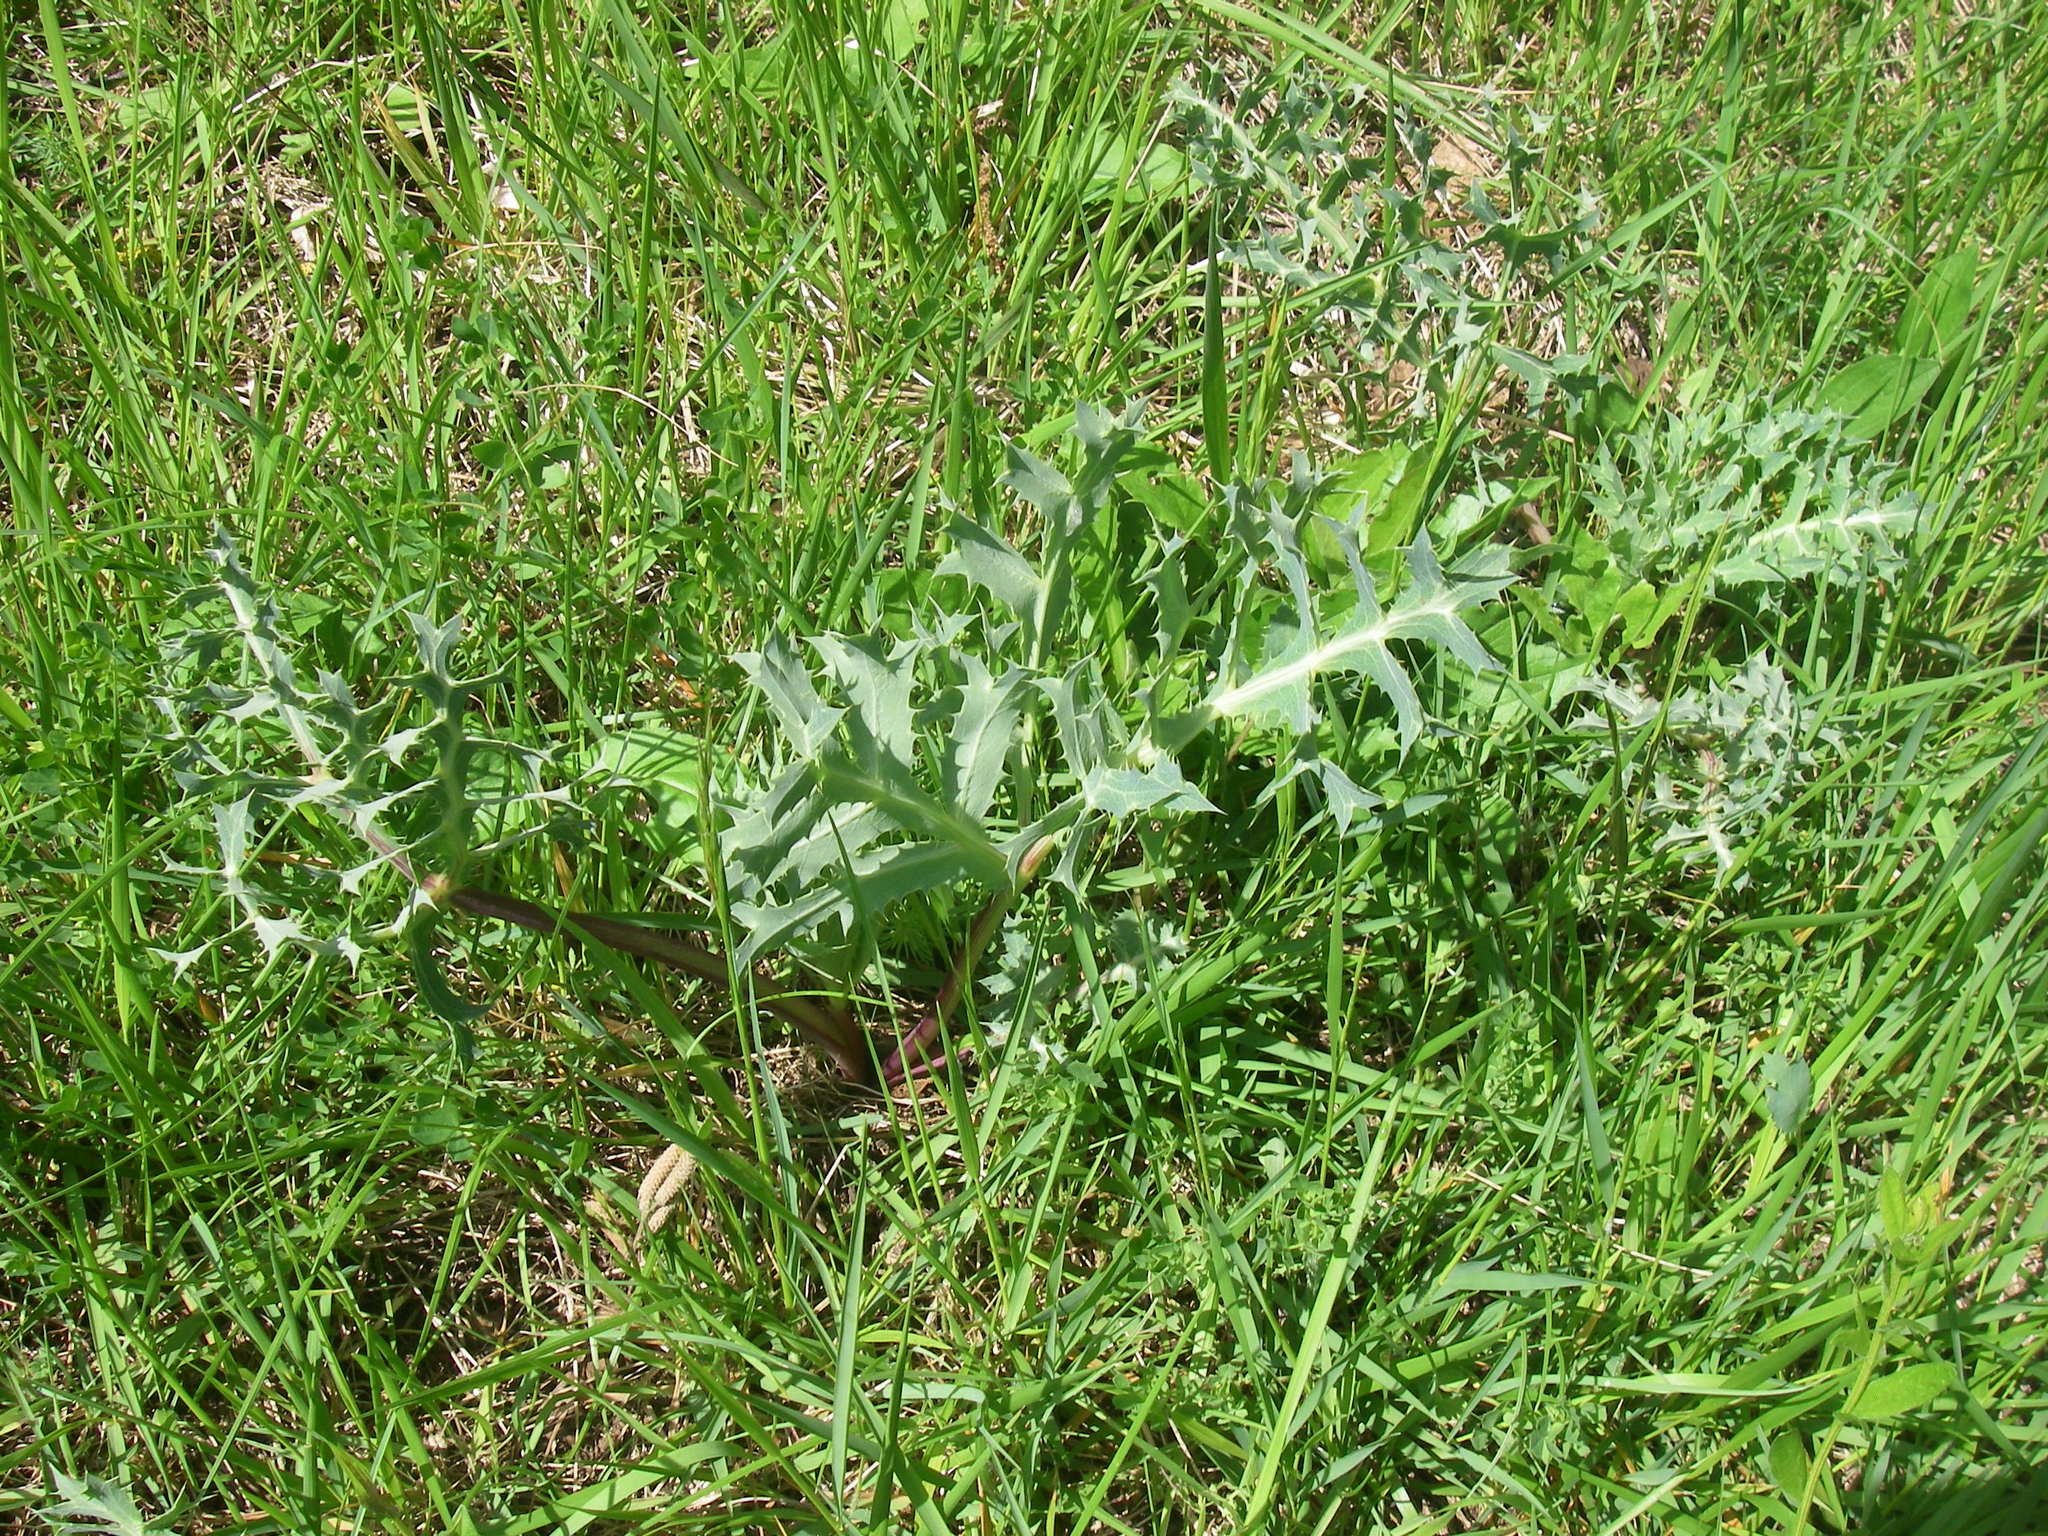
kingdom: Plantae
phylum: Tracheophyta
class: Magnoliopsida
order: Apiales
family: Apiaceae
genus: Eryngium
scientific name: Eryngium campestre
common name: Field eryngo
